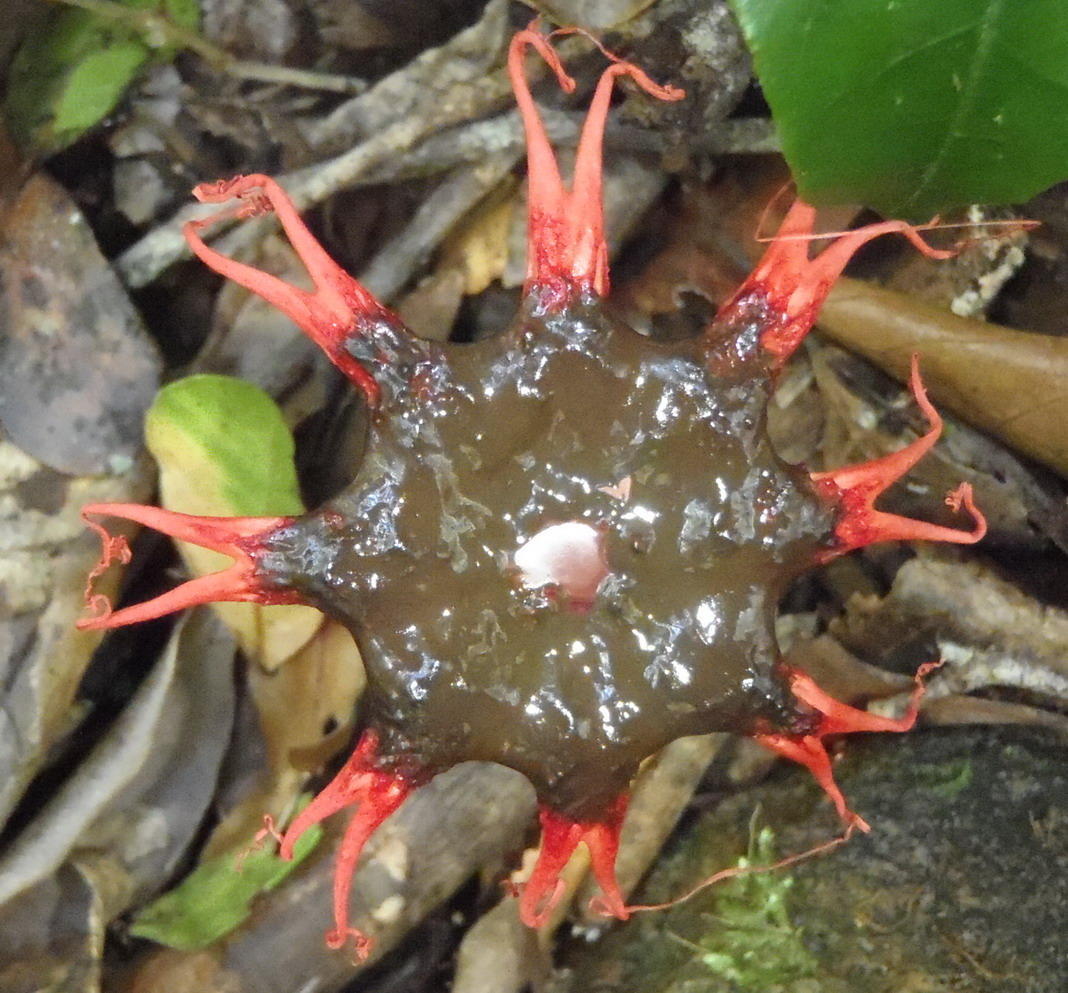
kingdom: Fungi
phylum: Basidiomycota
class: Agaricomycetes
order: Phallales
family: Phallaceae
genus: Aseroe
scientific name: Aseroe rubra
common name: Starfish fungus
